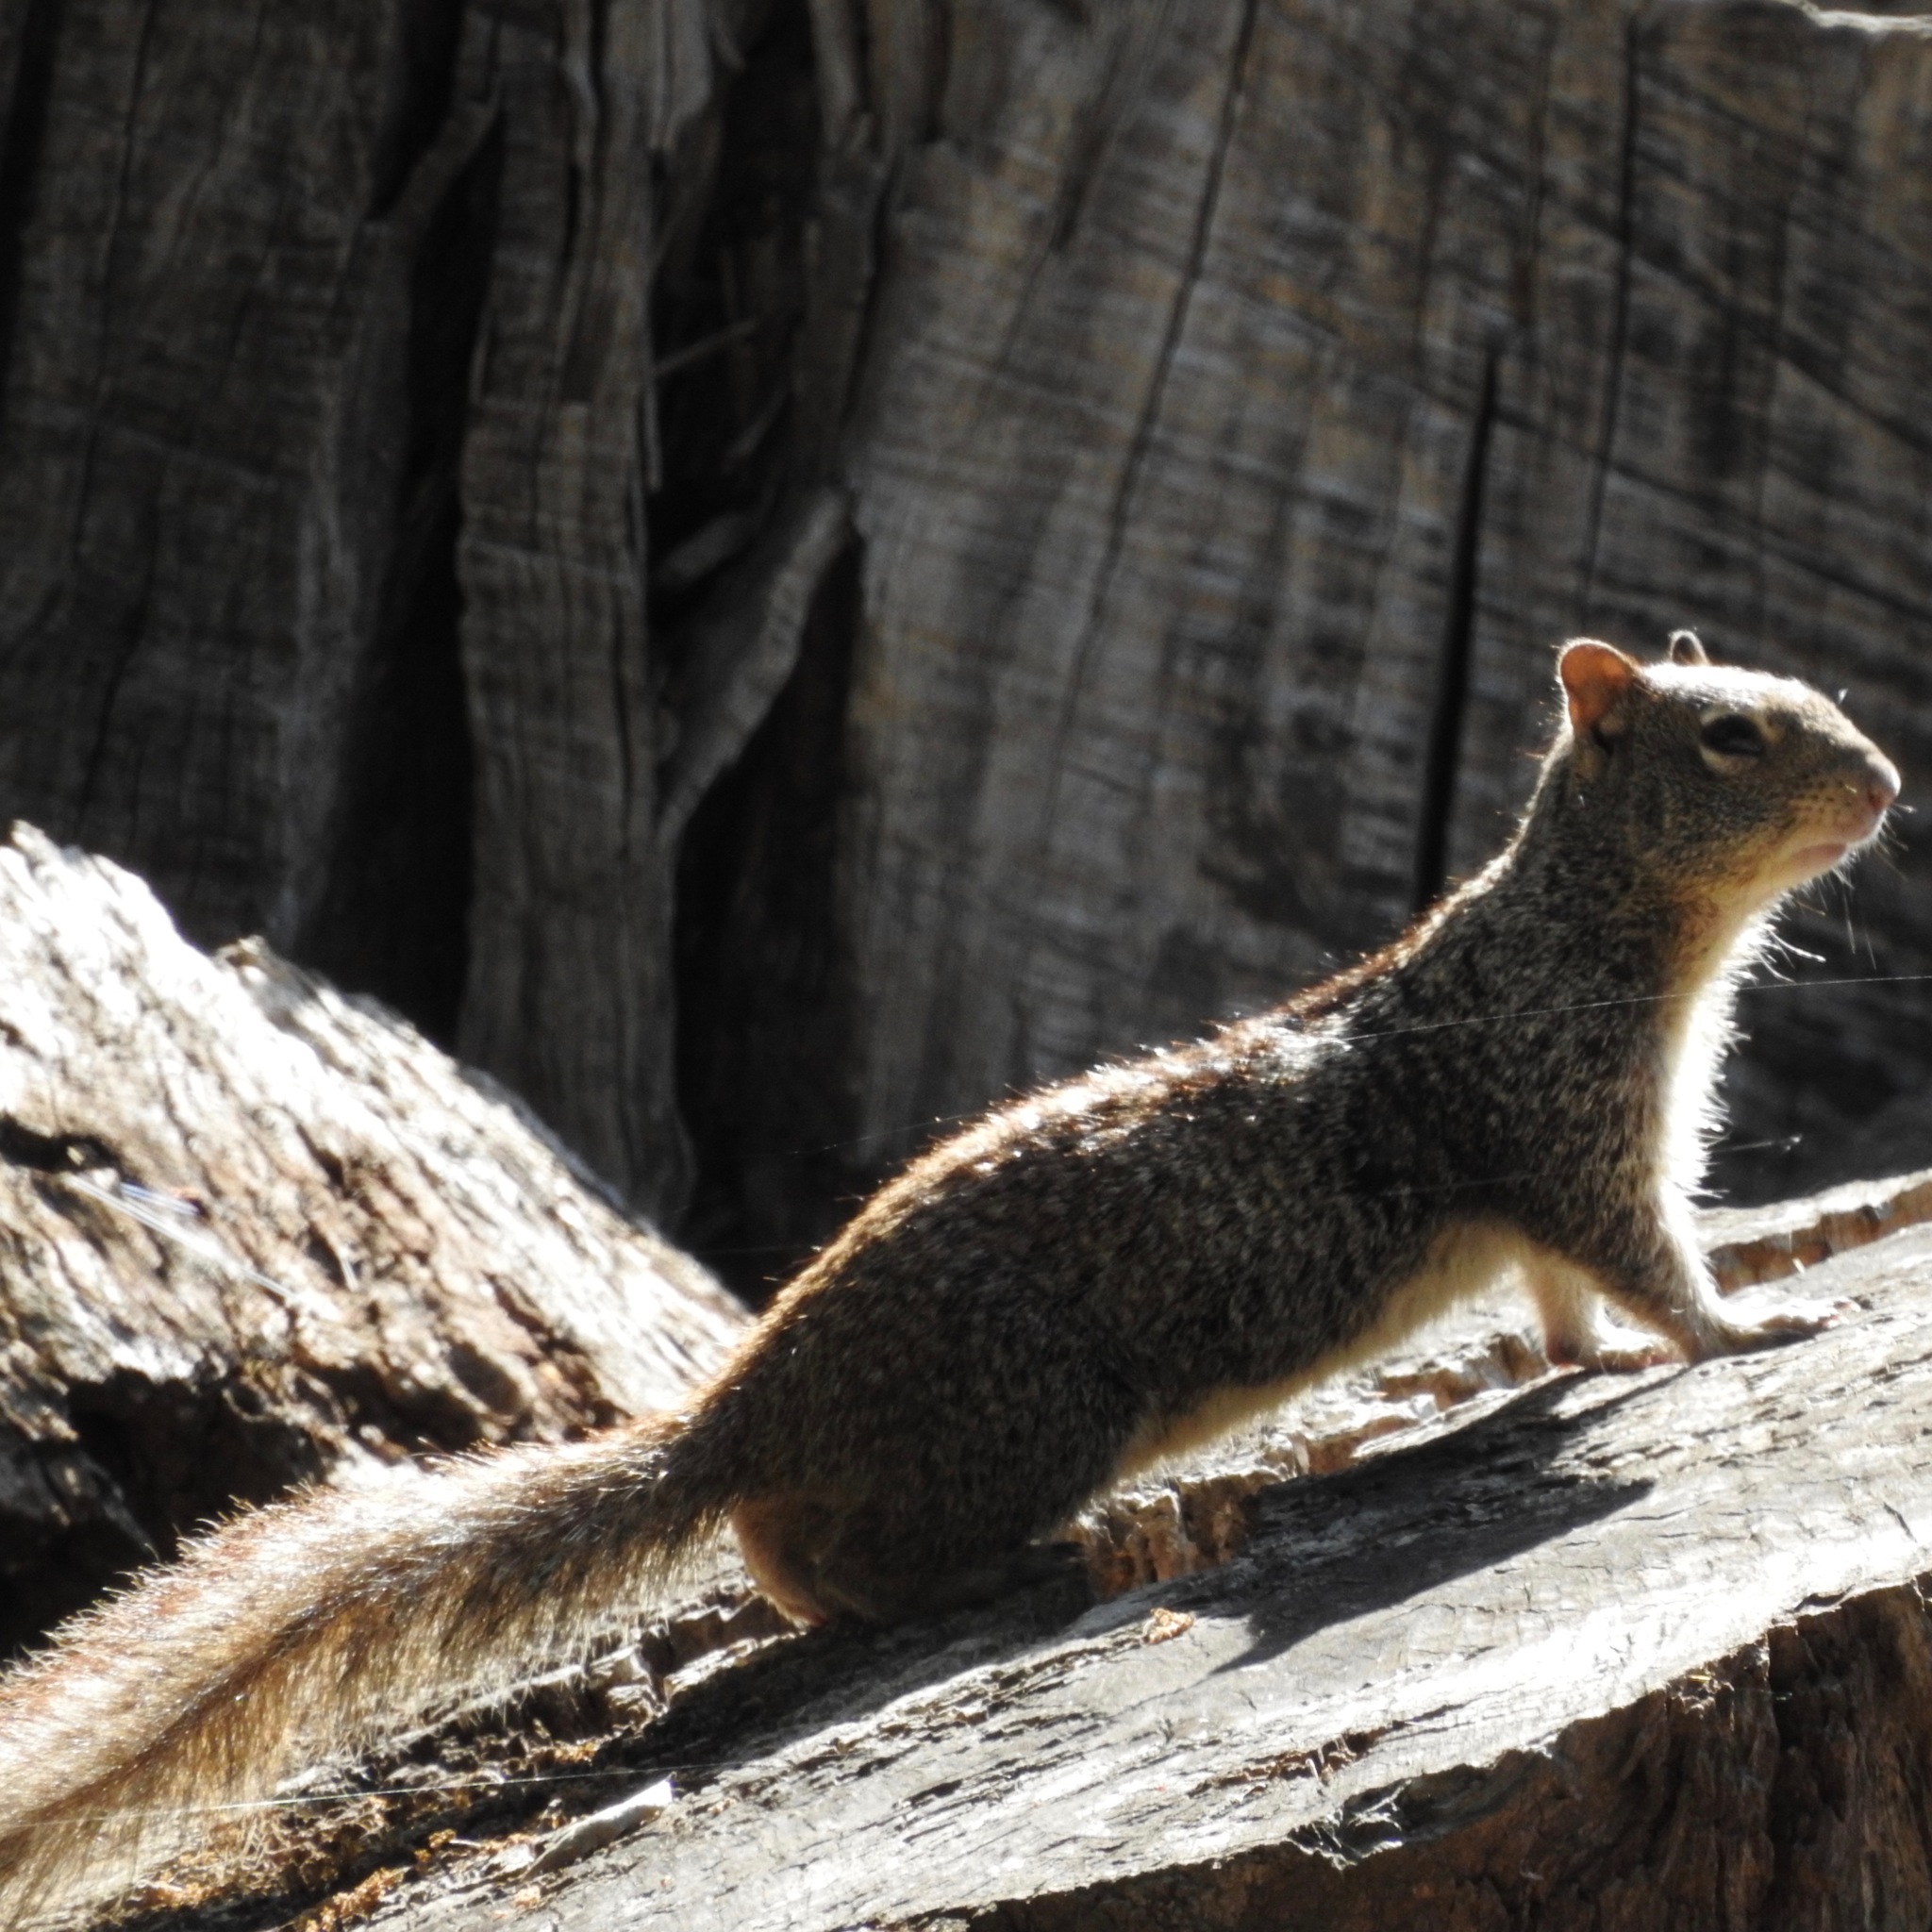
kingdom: Animalia
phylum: Chordata
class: Mammalia
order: Rodentia
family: Sciuridae
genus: Otospermophilus
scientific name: Otospermophilus beecheyi
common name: California ground squirrel
